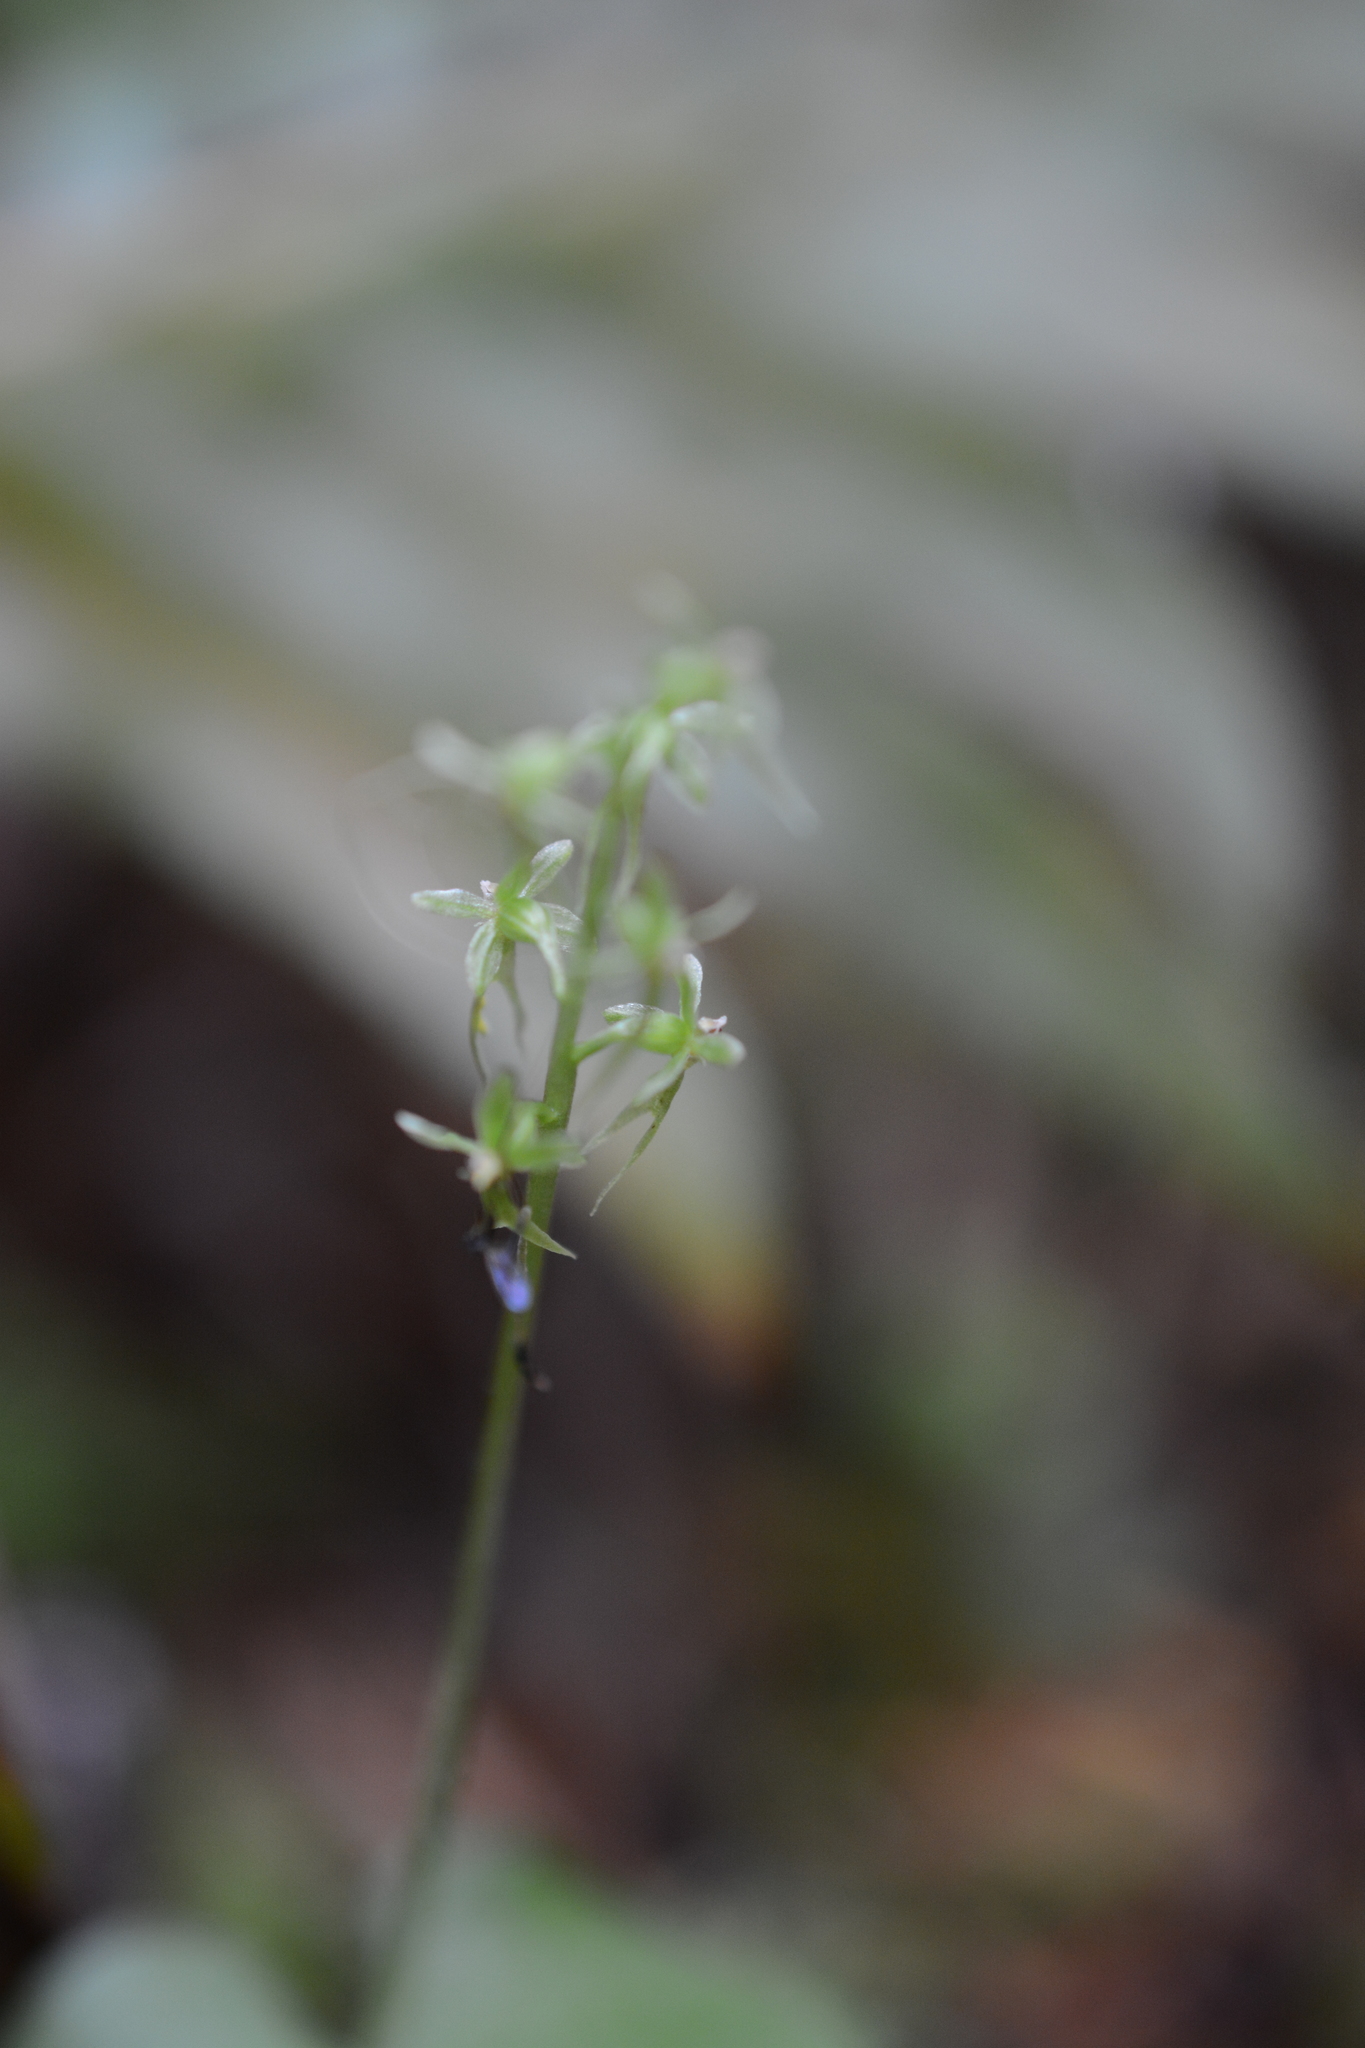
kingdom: Plantae
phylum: Tracheophyta
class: Liliopsida
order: Asparagales
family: Orchidaceae
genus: Neottia
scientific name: Neottia cordata
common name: Lesser twayblade
